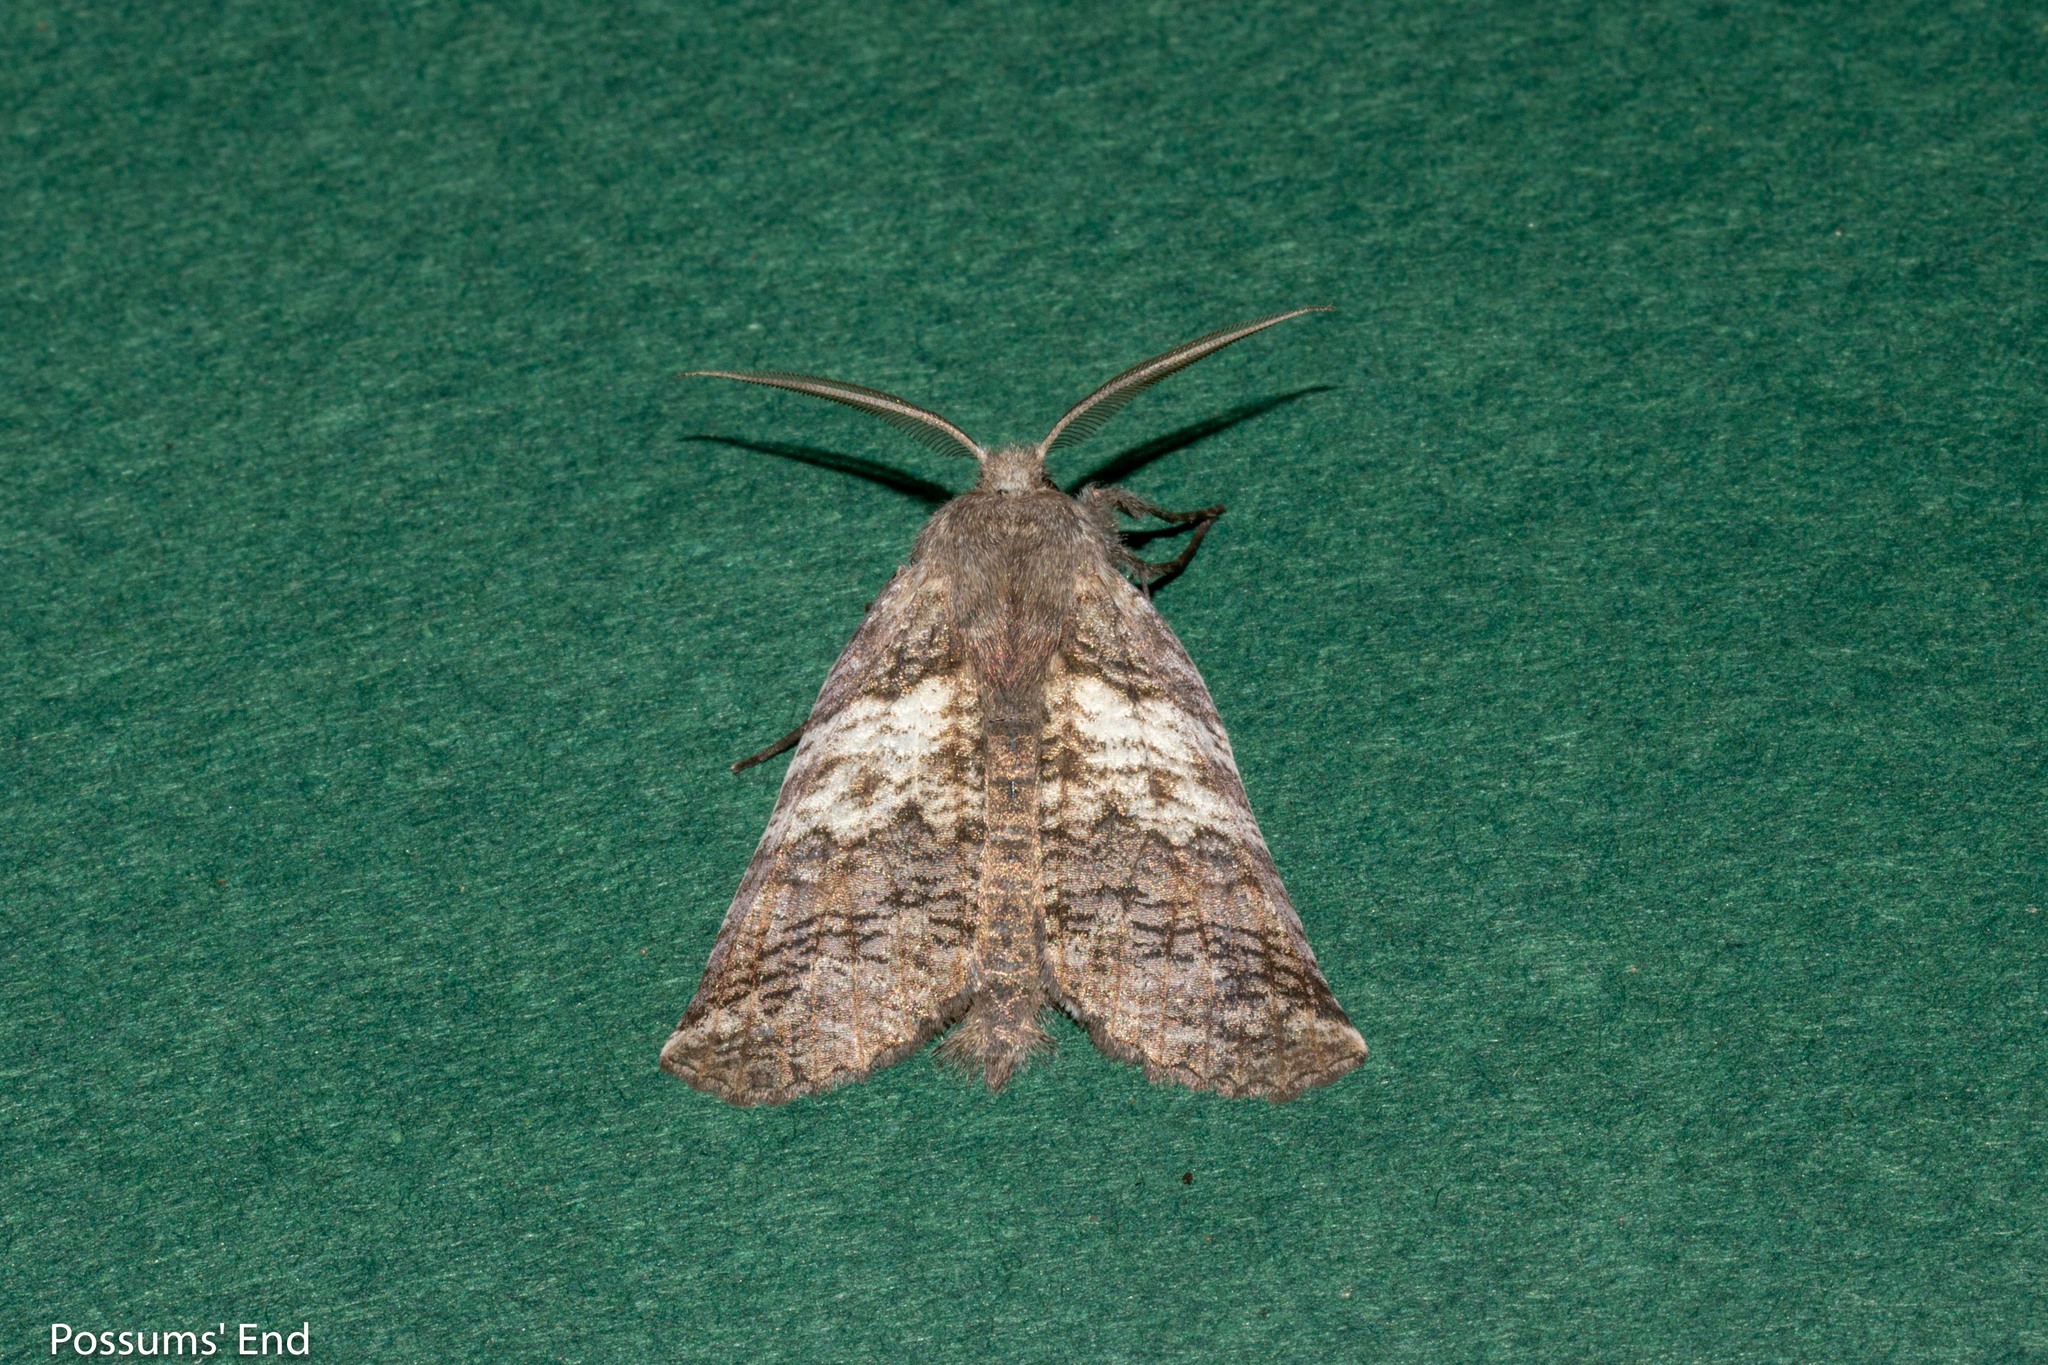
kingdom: Animalia
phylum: Arthropoda
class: Insecta
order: Lepidoptera
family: Geometridae
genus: Declana
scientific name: Declana
